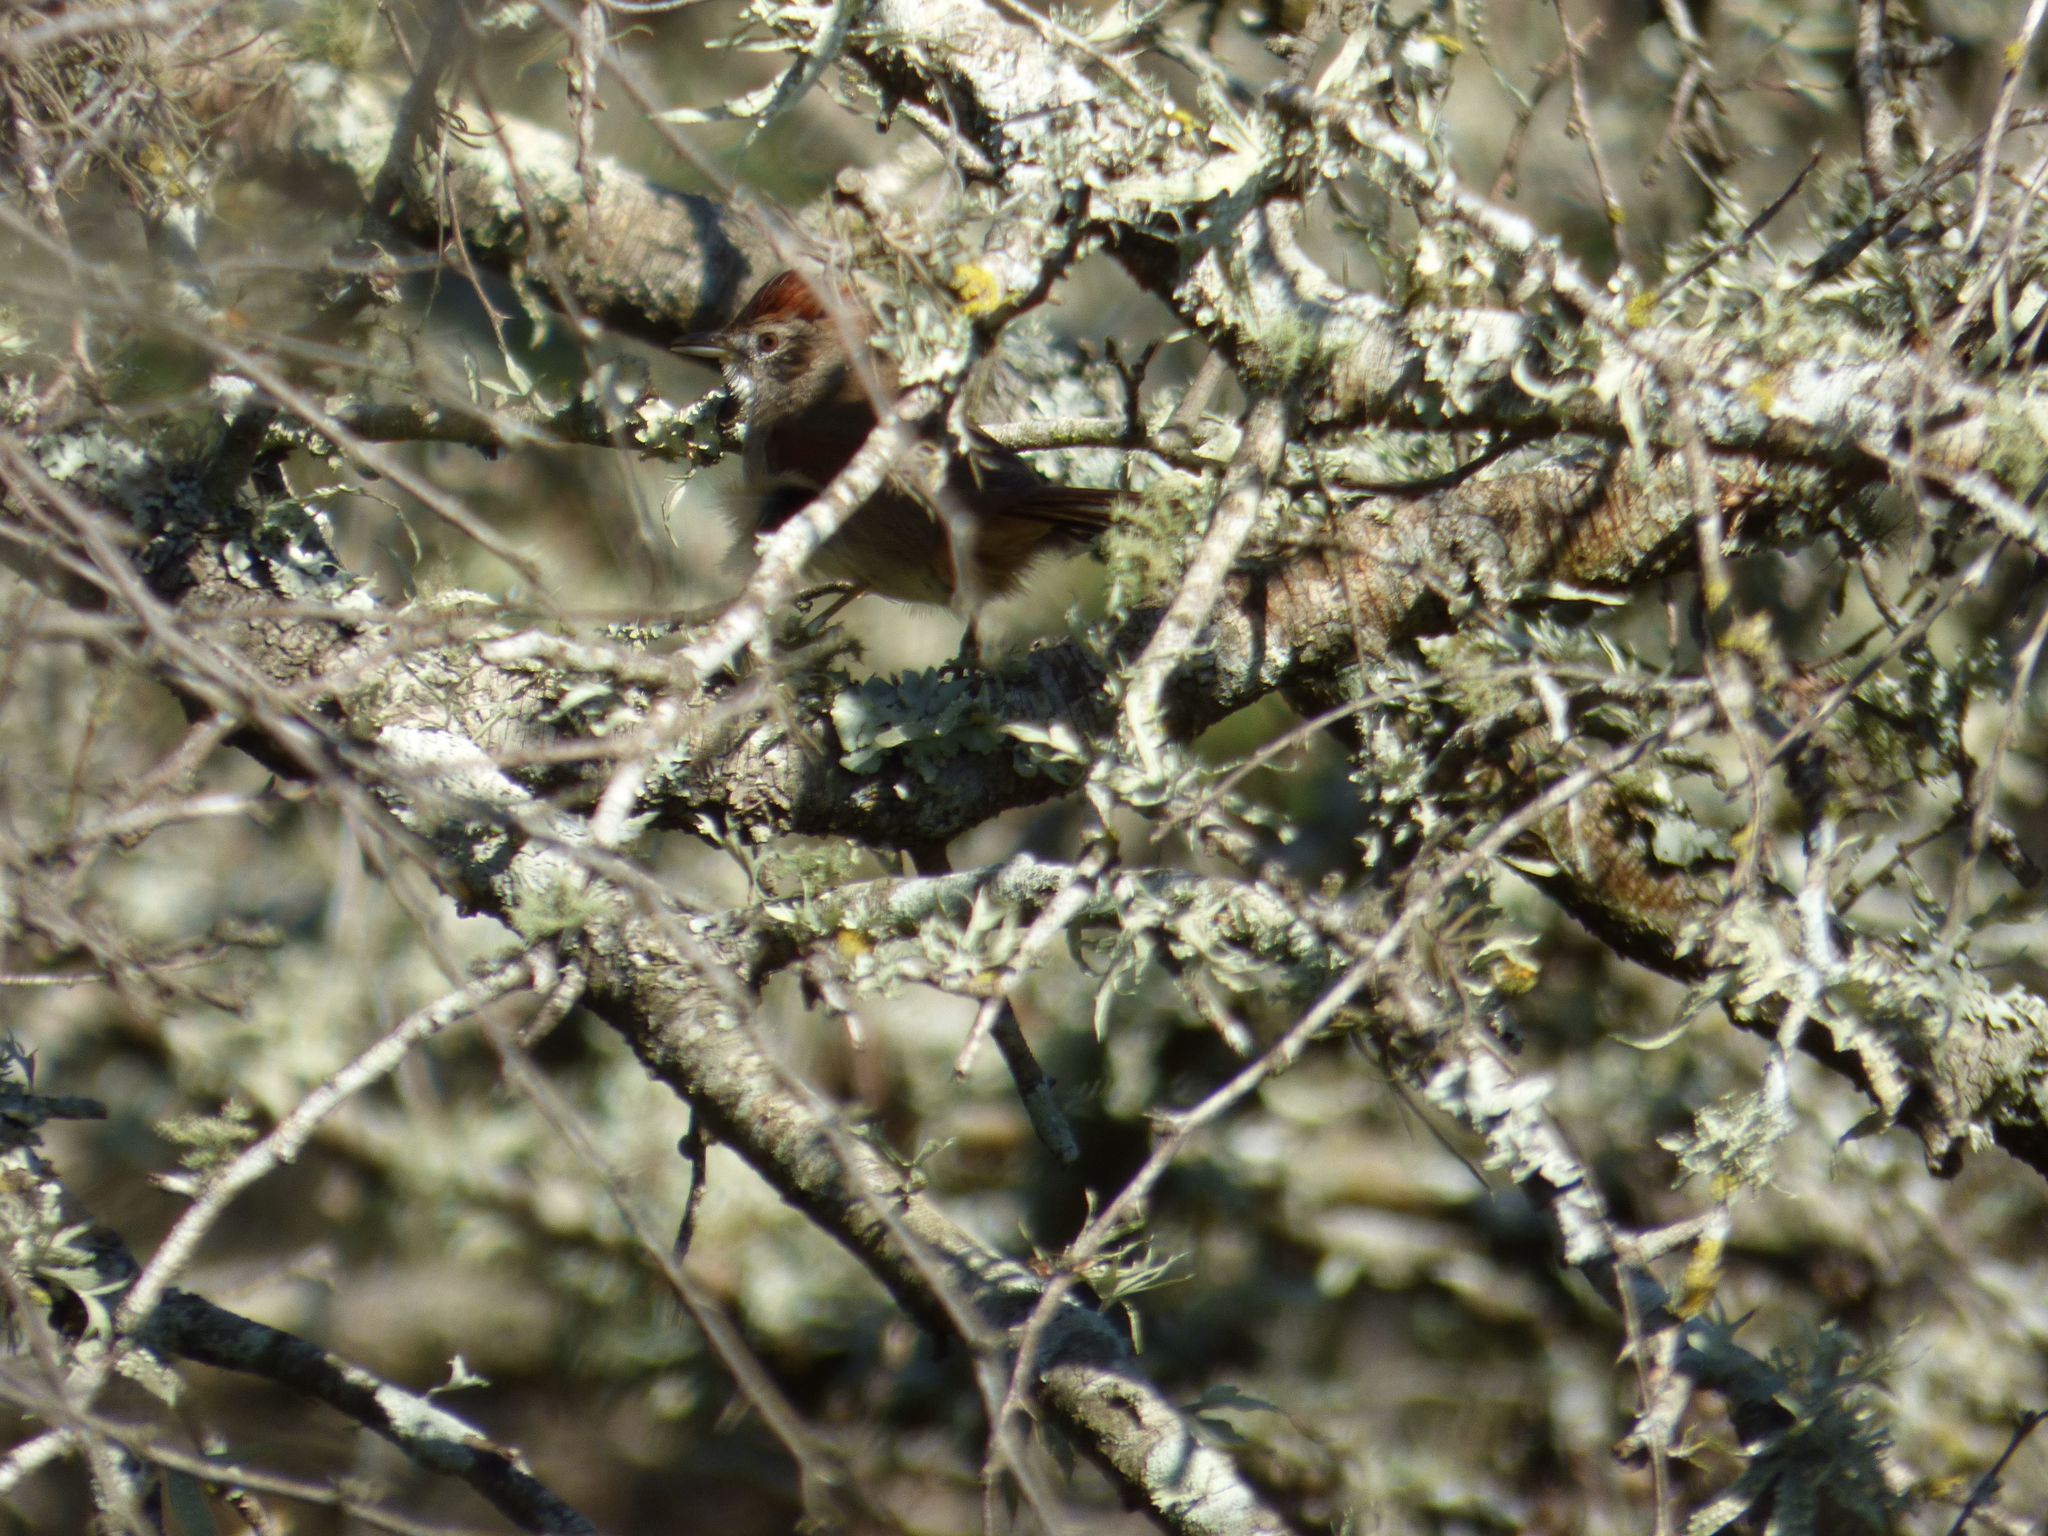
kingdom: Animalia
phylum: Chordata
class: Aves
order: Passeriformes
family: Furnariidae
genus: Synallaxis
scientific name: Synallaxis frontalis
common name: Sooty-fronted spinetail
